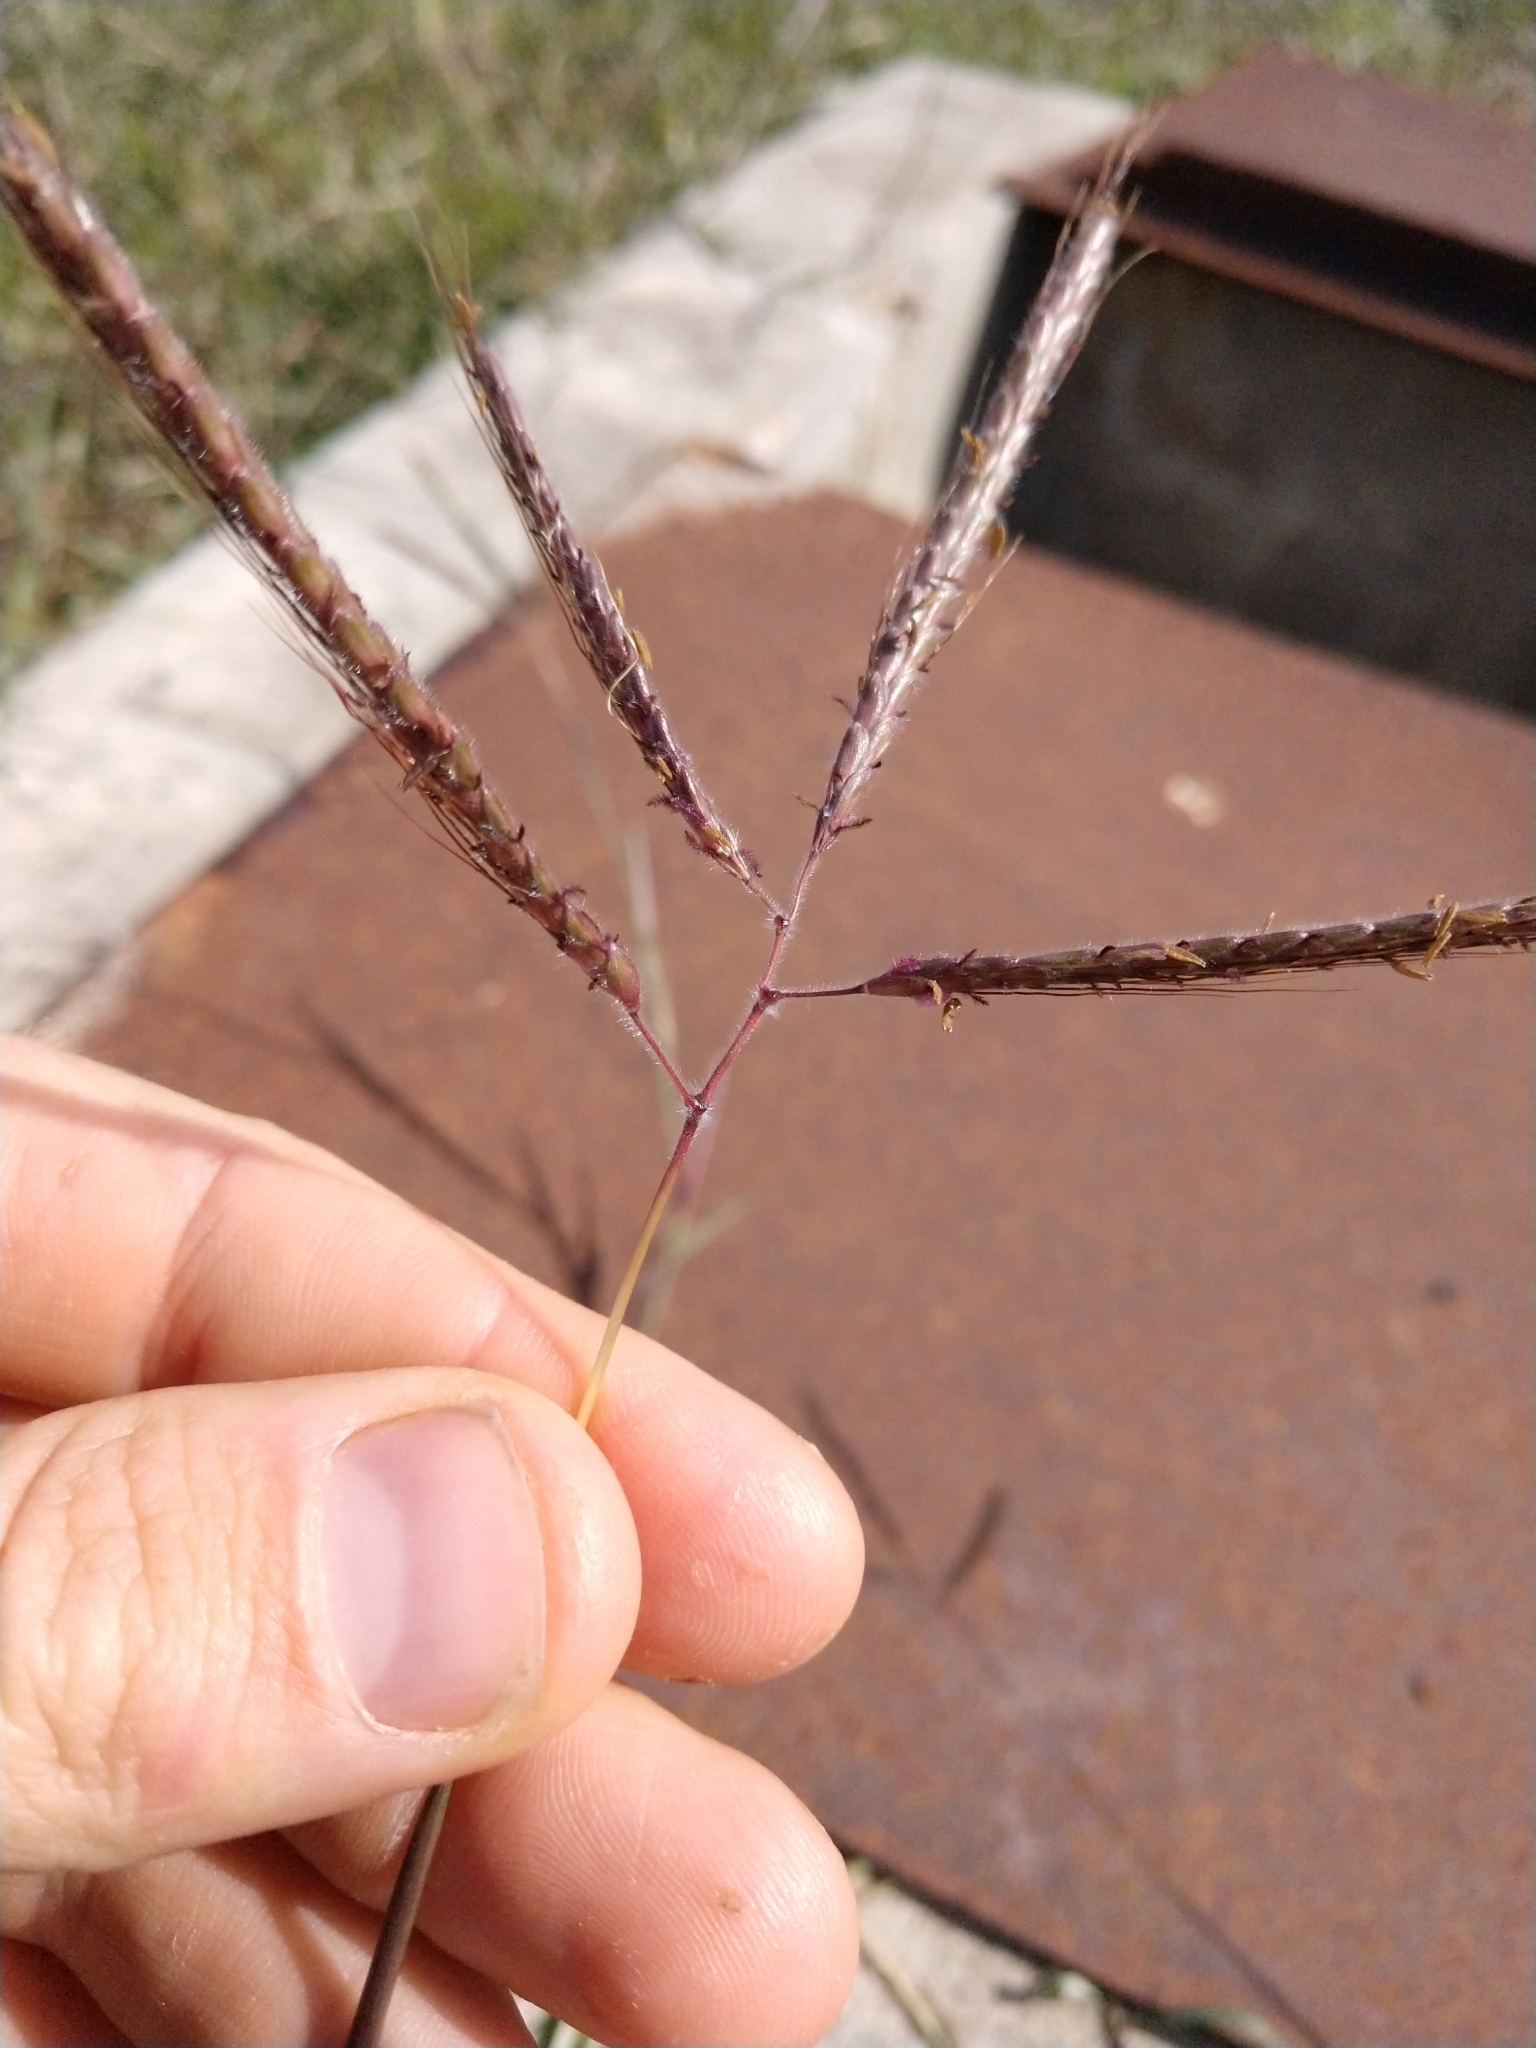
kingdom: Plantae
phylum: Tracheophyta
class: Liliopsida
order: Poales
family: Poaceae
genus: Dichanthium
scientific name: Dichanthium aristatum
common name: Angleton bluestem
